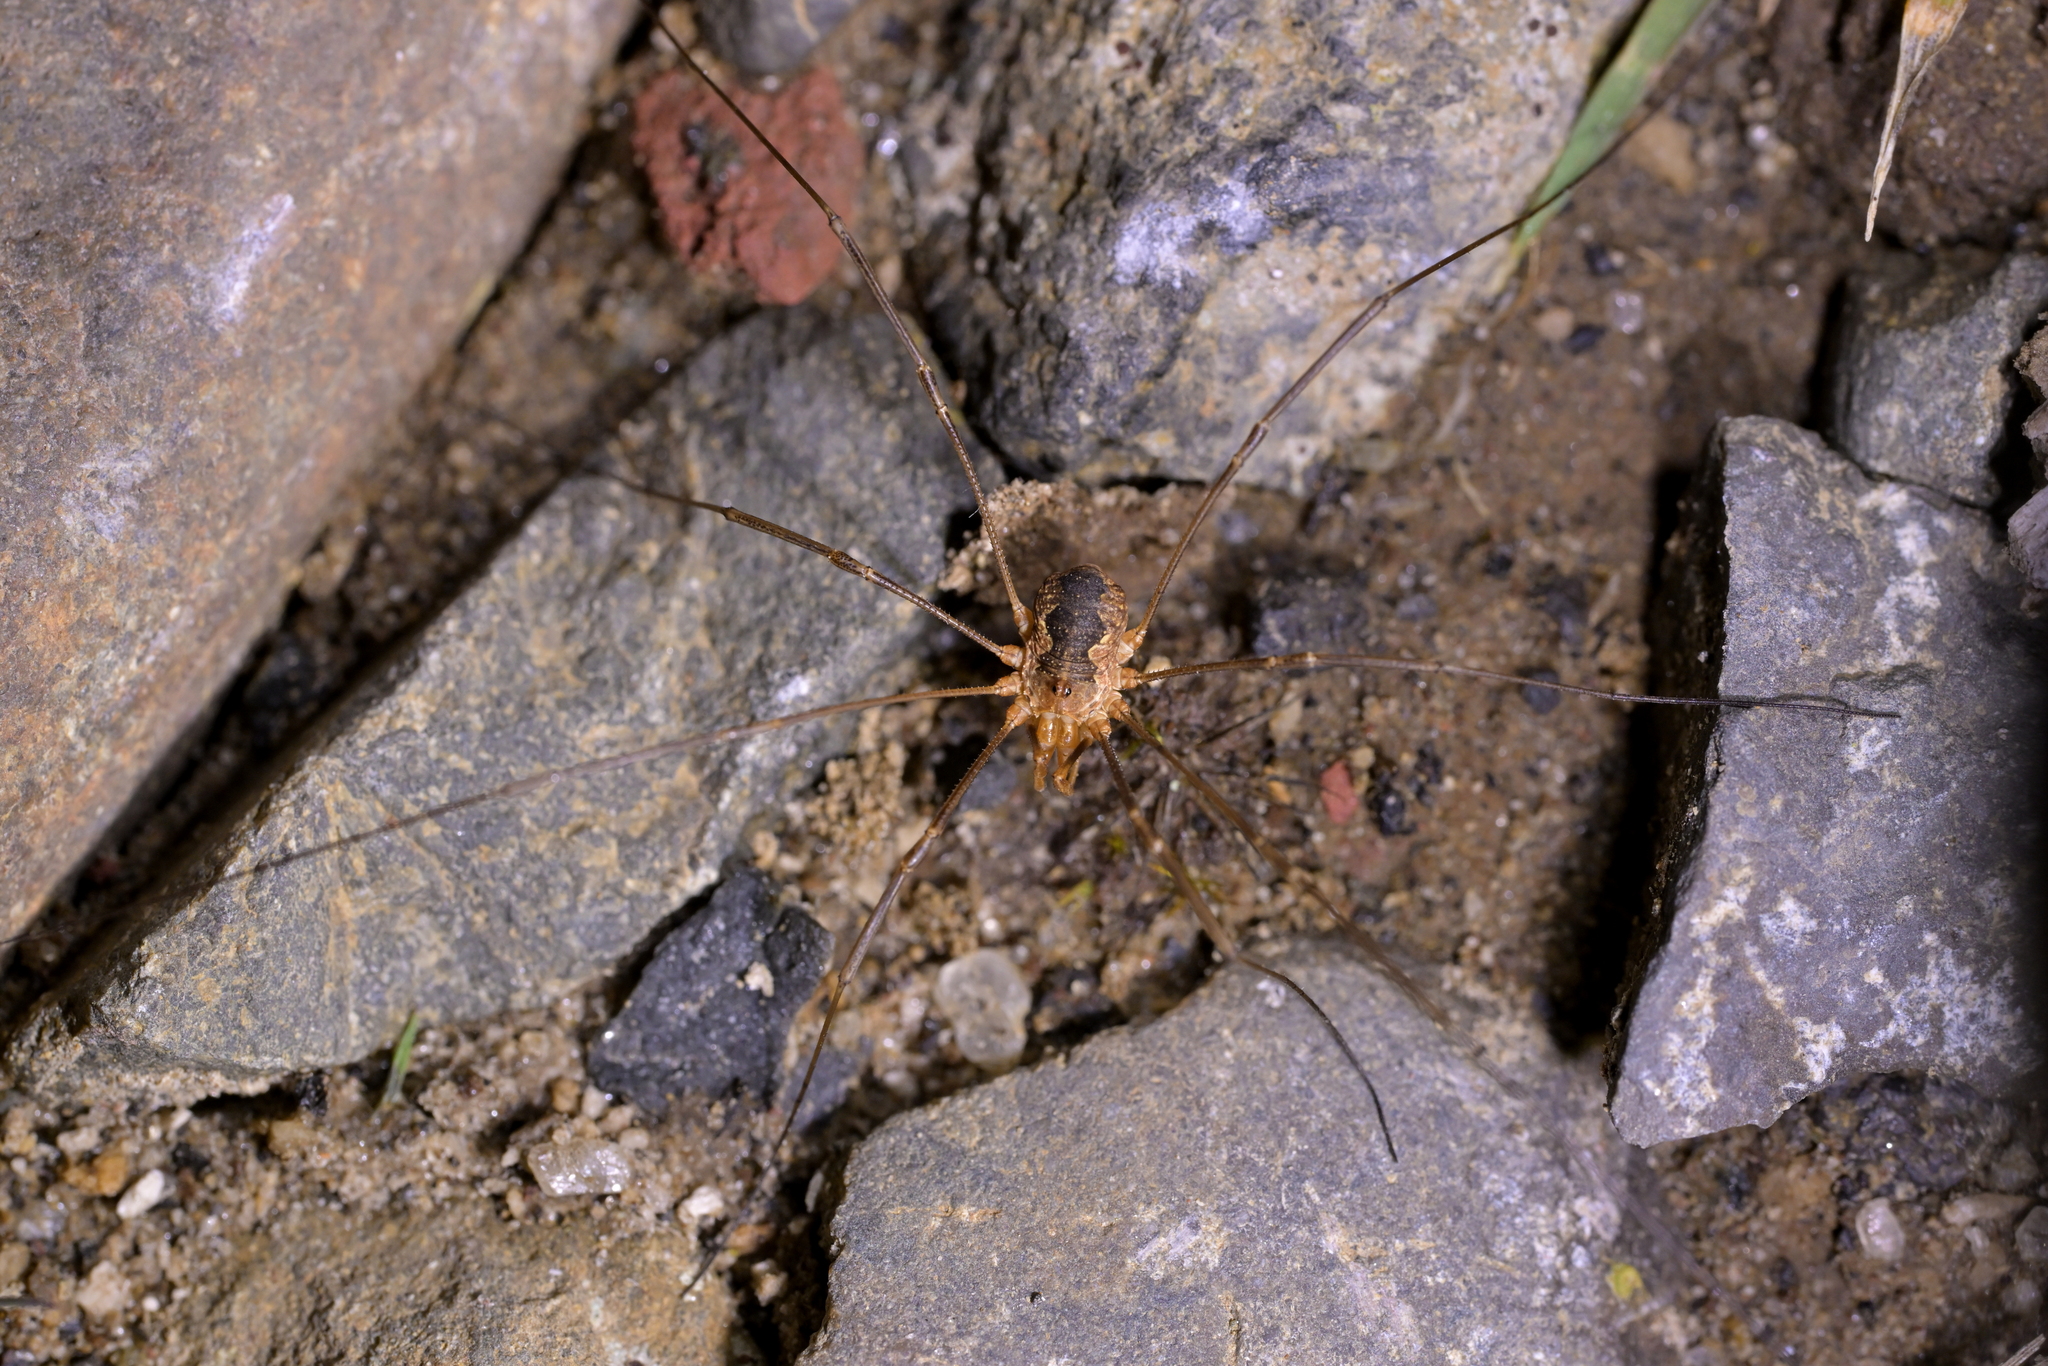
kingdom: Animalia
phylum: Arthropoda
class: Arachnida
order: Opiliones
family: Phalangiidae
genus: Phalangium
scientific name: Phalangium opilio
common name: Daddy longleg
